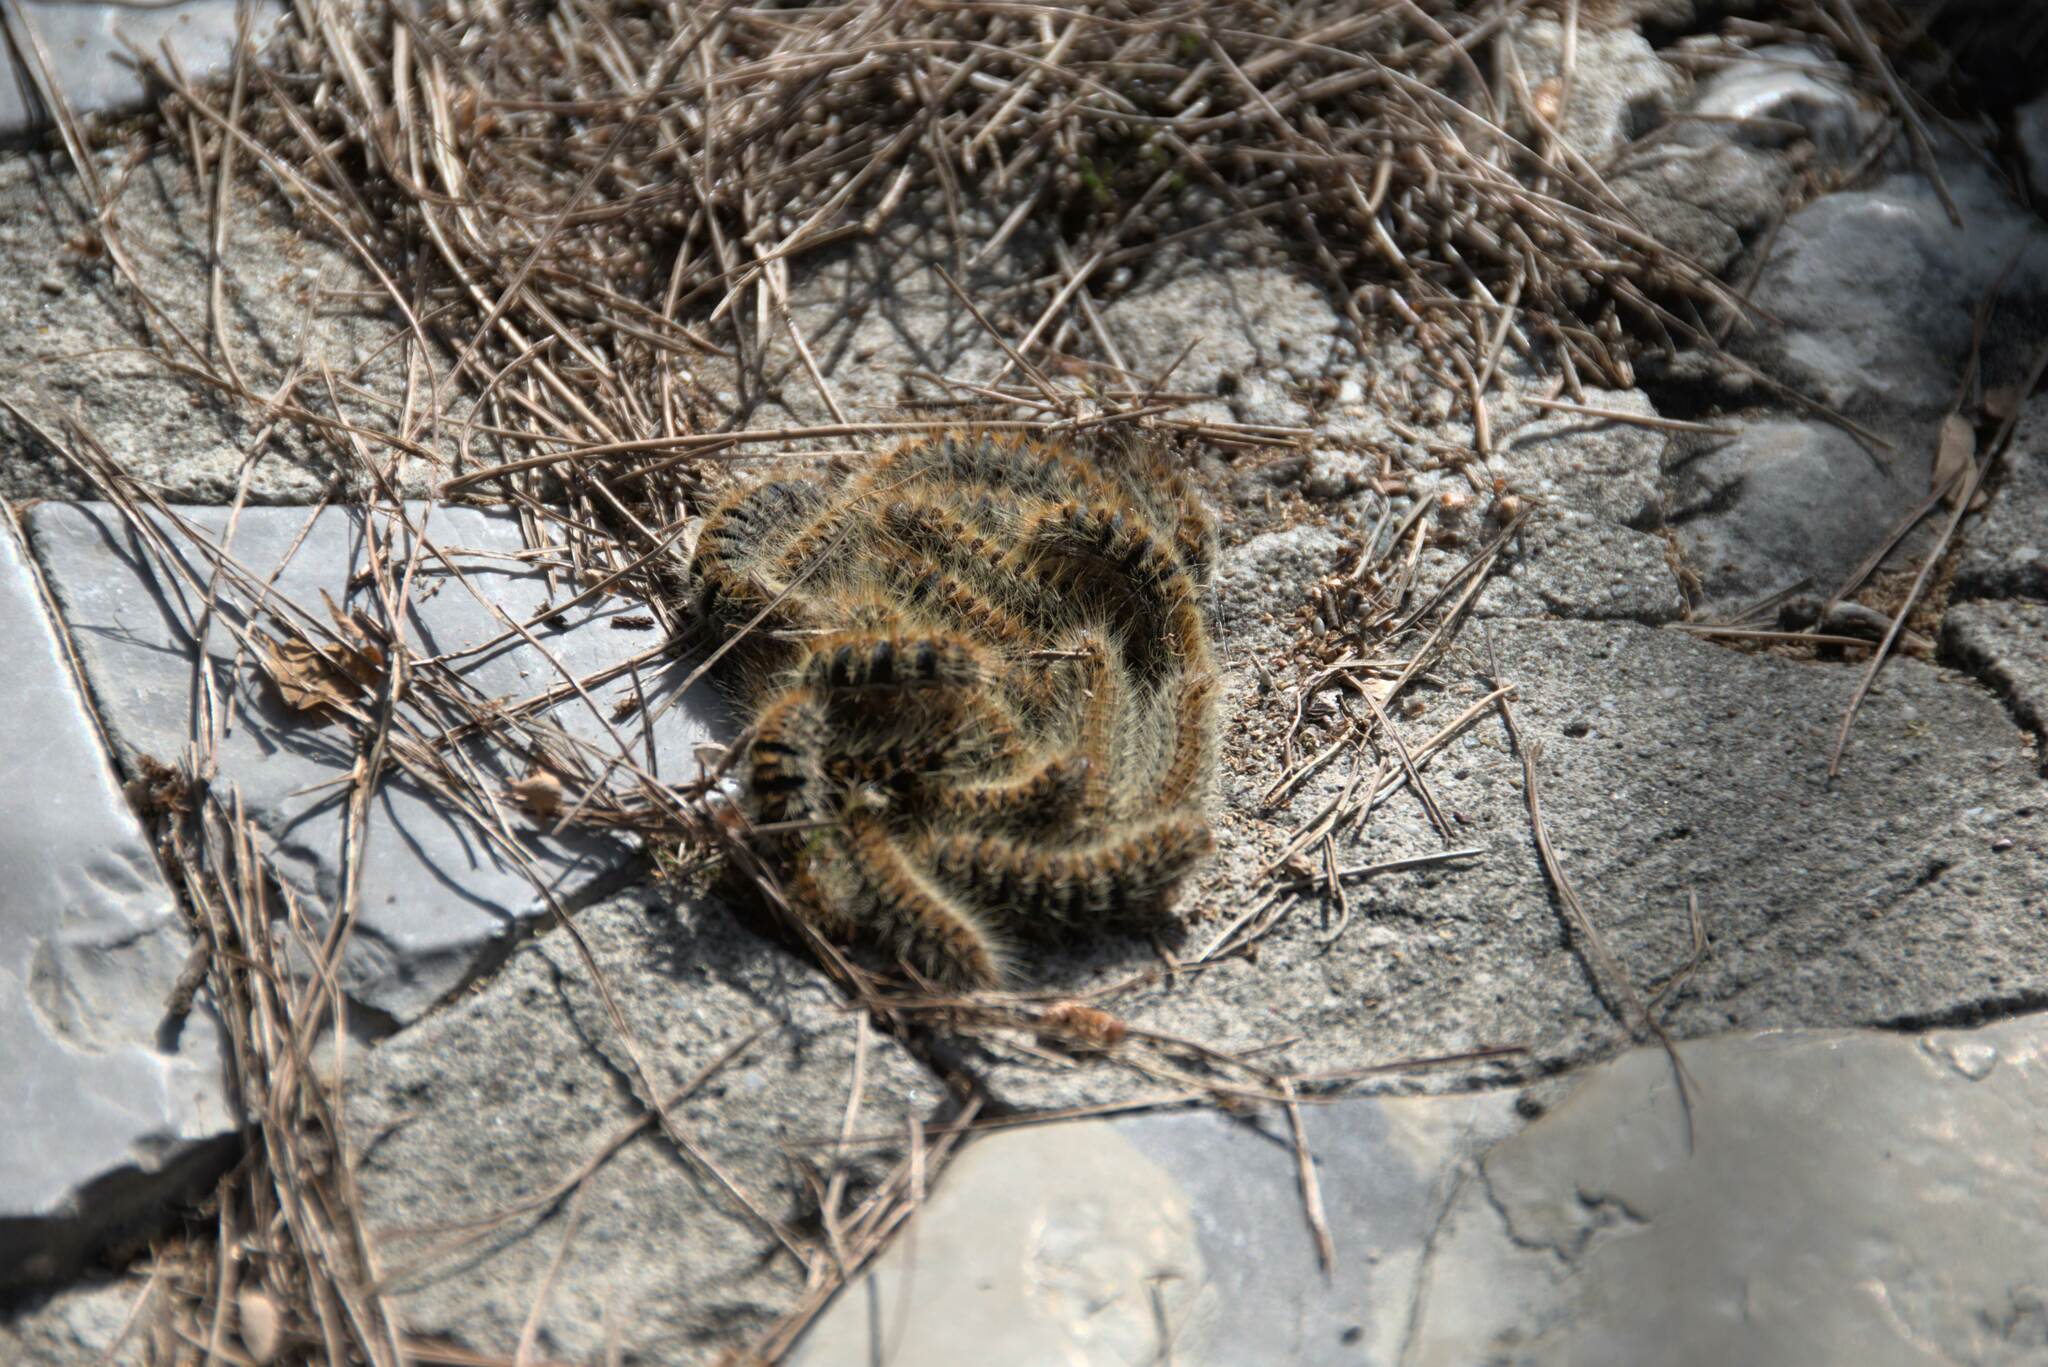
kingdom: Animalia
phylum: Arthropoda
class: Insecta
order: Lepidoptera
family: Notodontidae
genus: Thaumetopoea
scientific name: Thaumetopoea
